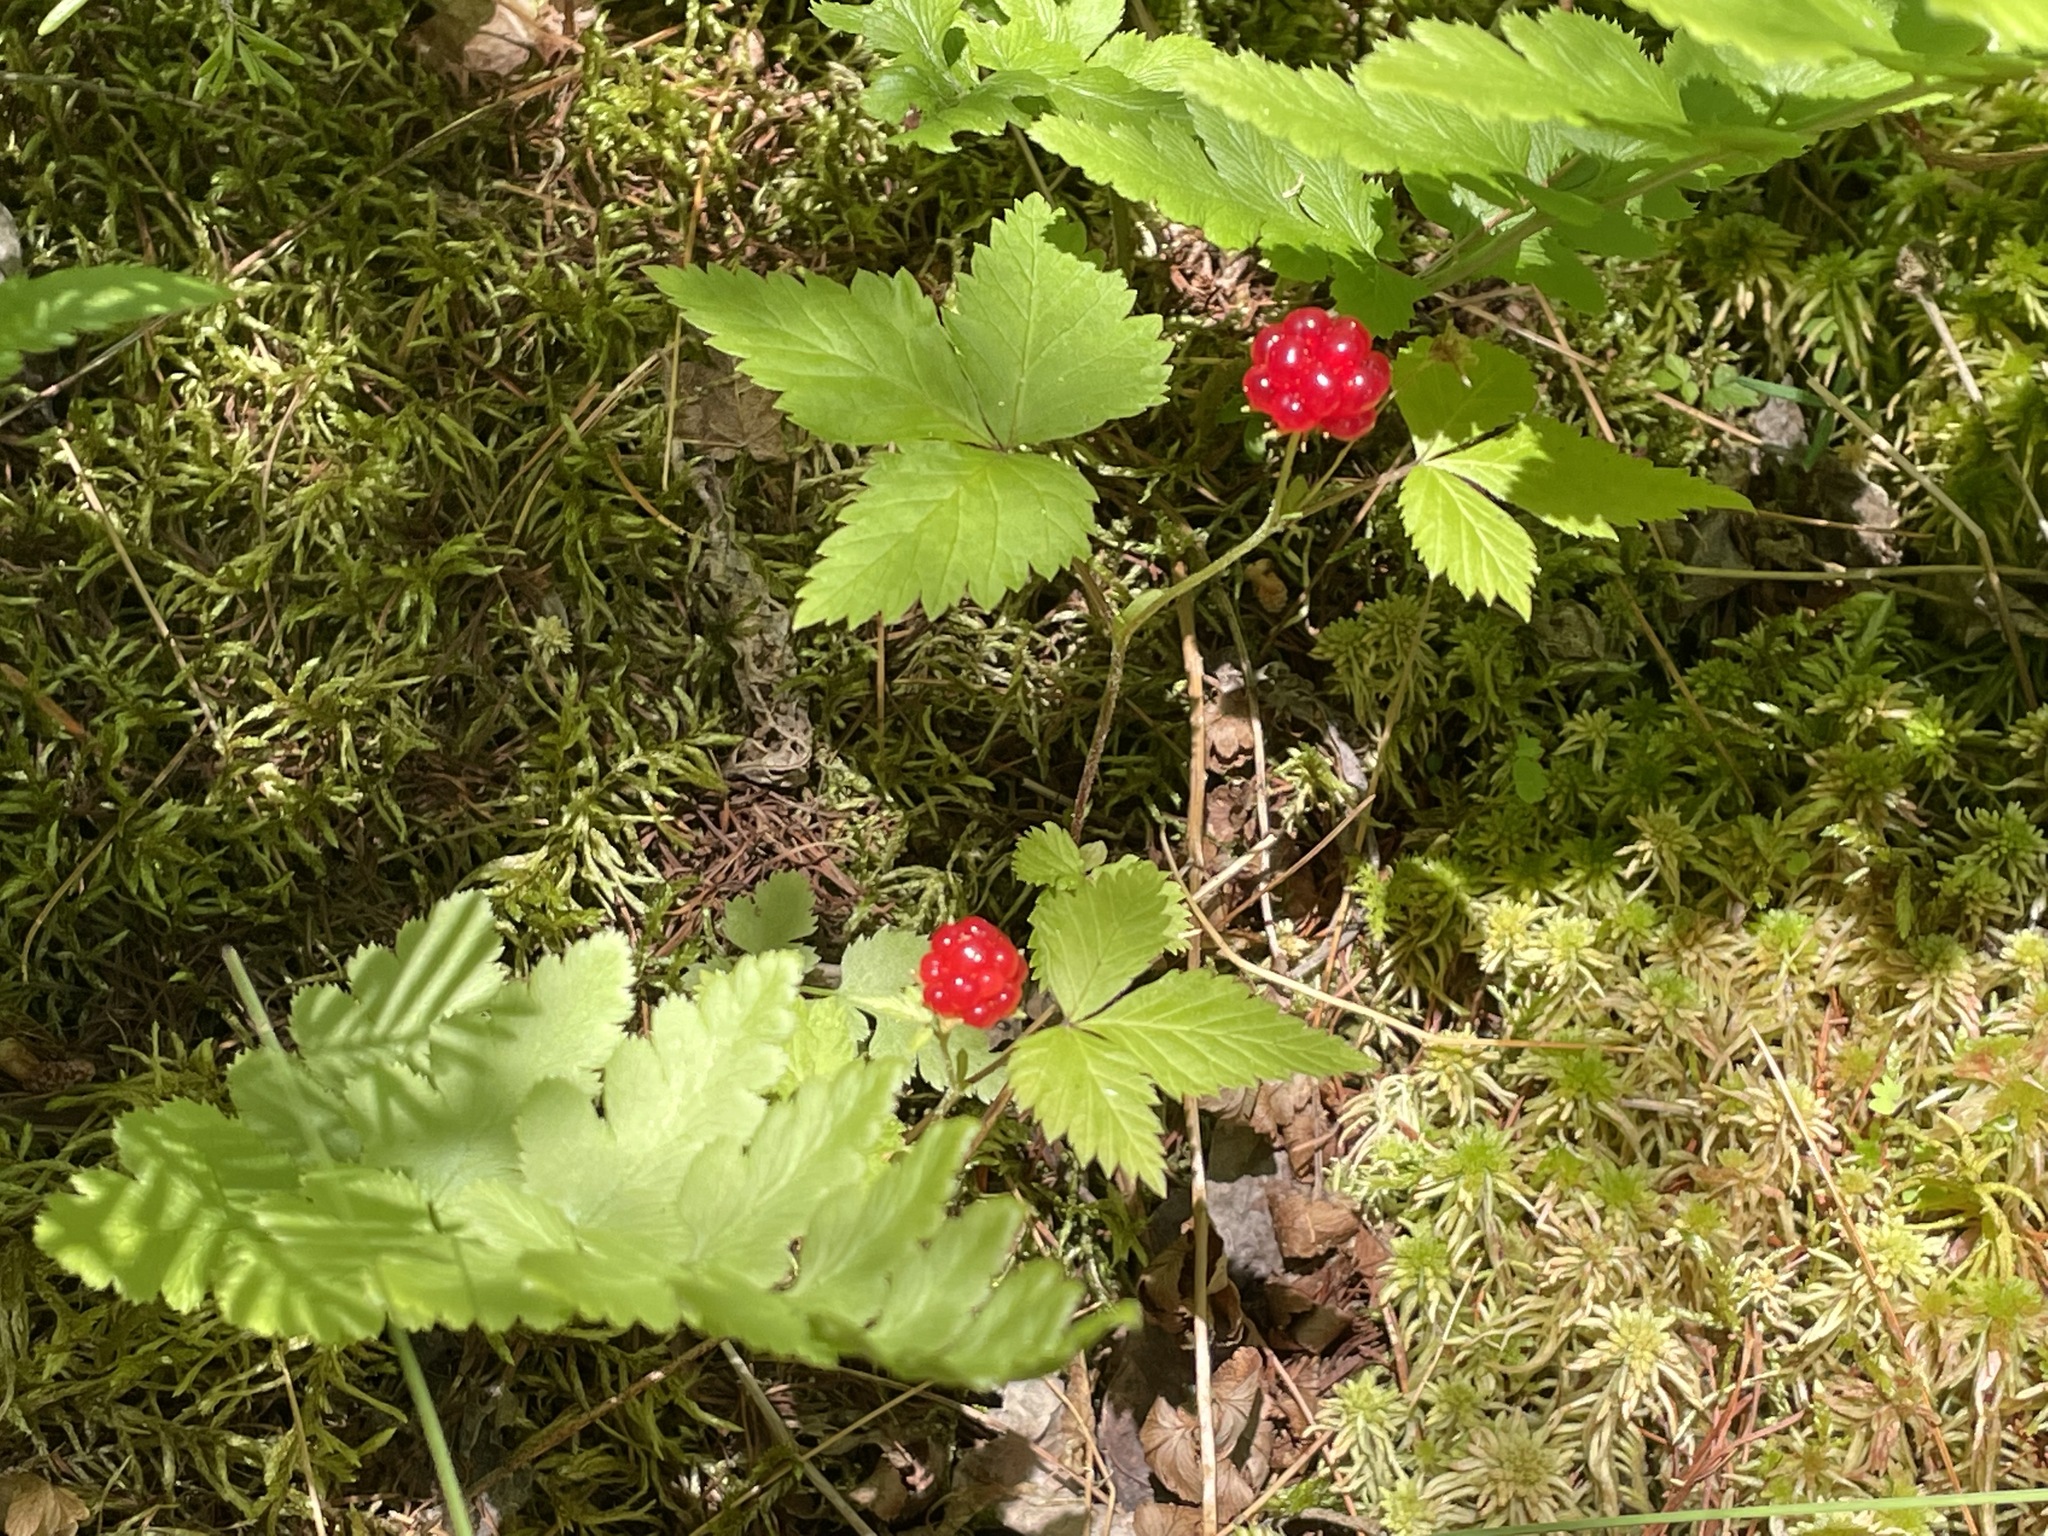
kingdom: Plantae
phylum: Tracheophyta
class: Magnoliopsida
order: Rosales
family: Rosaceae
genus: Rubus
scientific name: Rubus pubescens
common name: Dwarf raspberry
